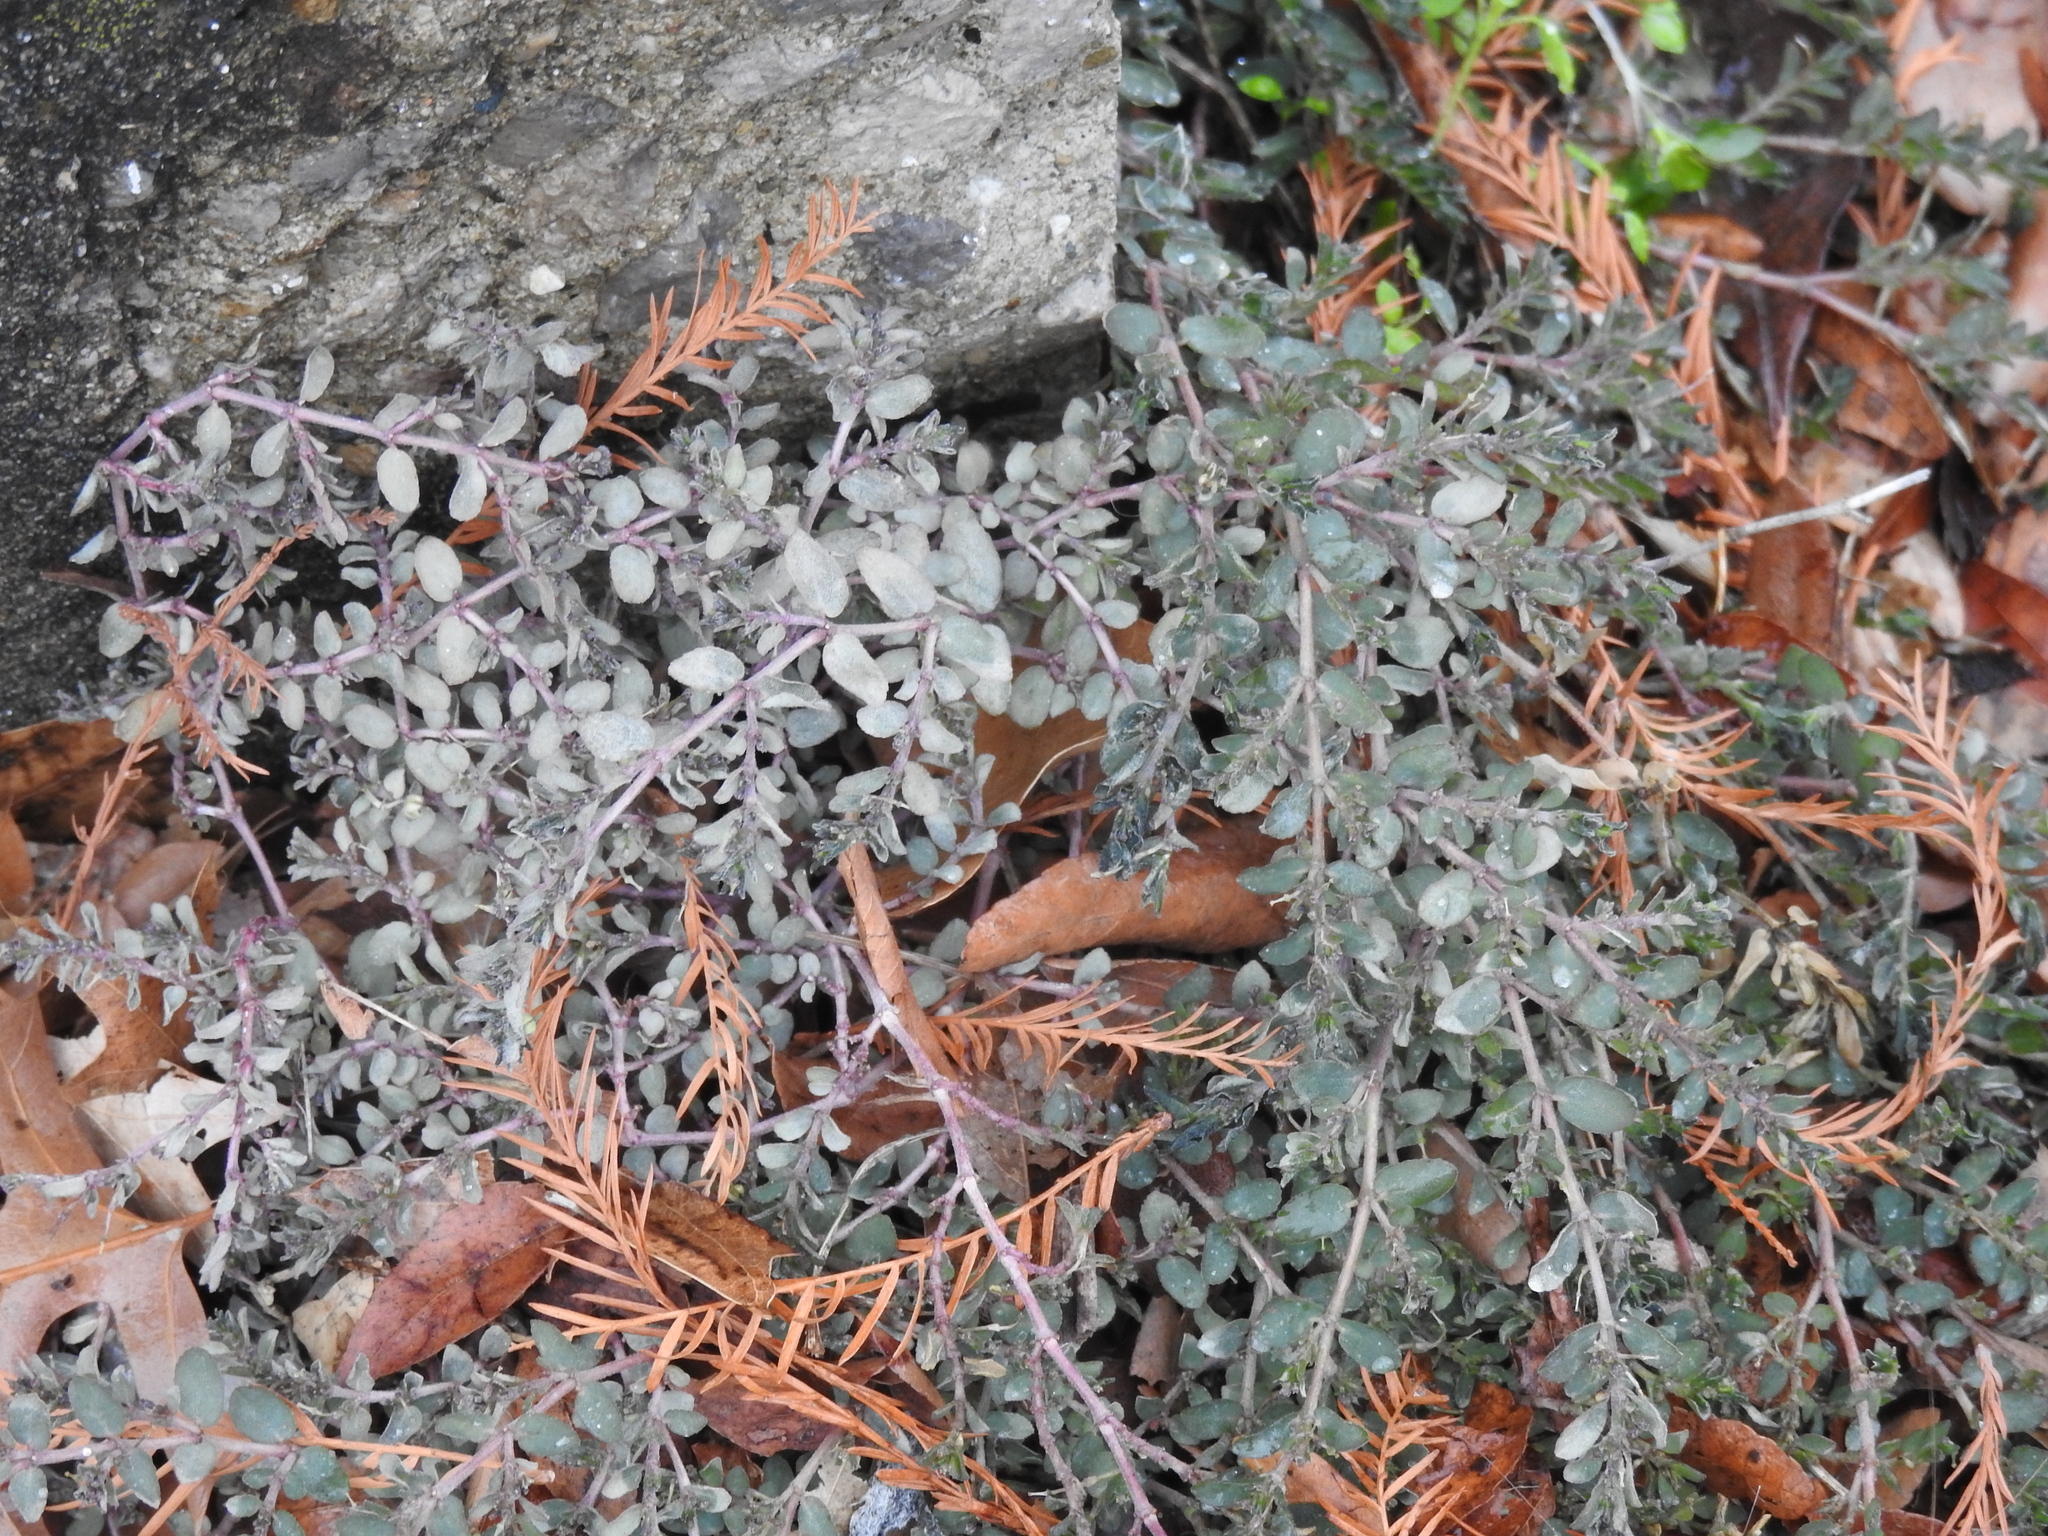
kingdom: Plantae
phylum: Tracheophyta
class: Magnoliopsida
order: Malpighiales
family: Euphorbiaceae
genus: Euphorbia
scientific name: Euphorbia prostrata
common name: Prostrate sandmat
